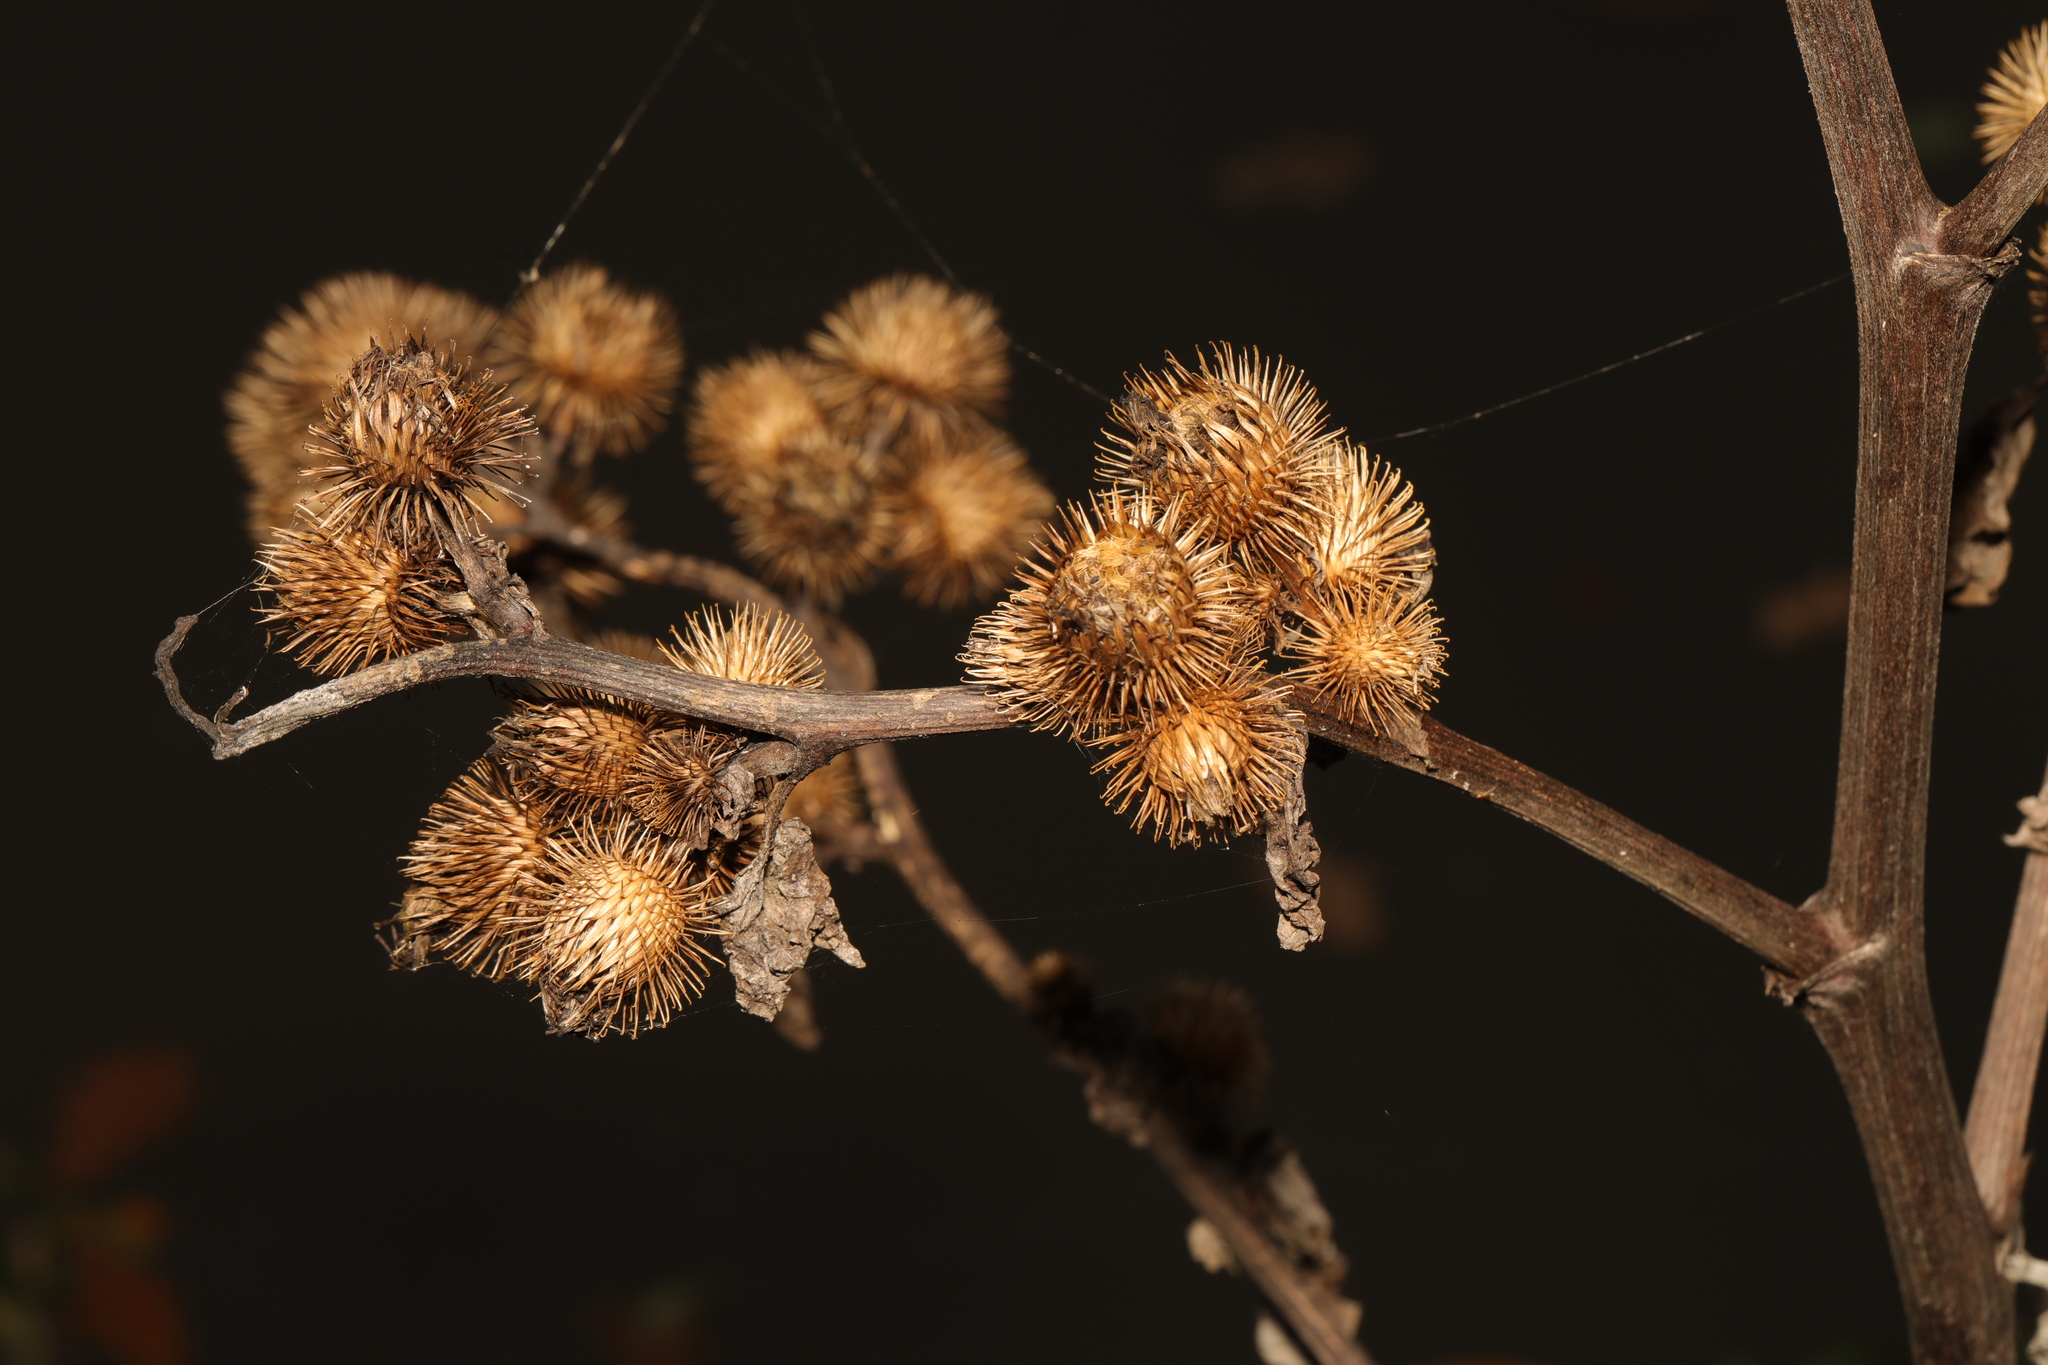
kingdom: Plantae
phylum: Tracheophyta
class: Magnoliopsida
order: Asterales
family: Asteraceae
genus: Arctium
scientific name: Arctium minus
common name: Lesser burdock
